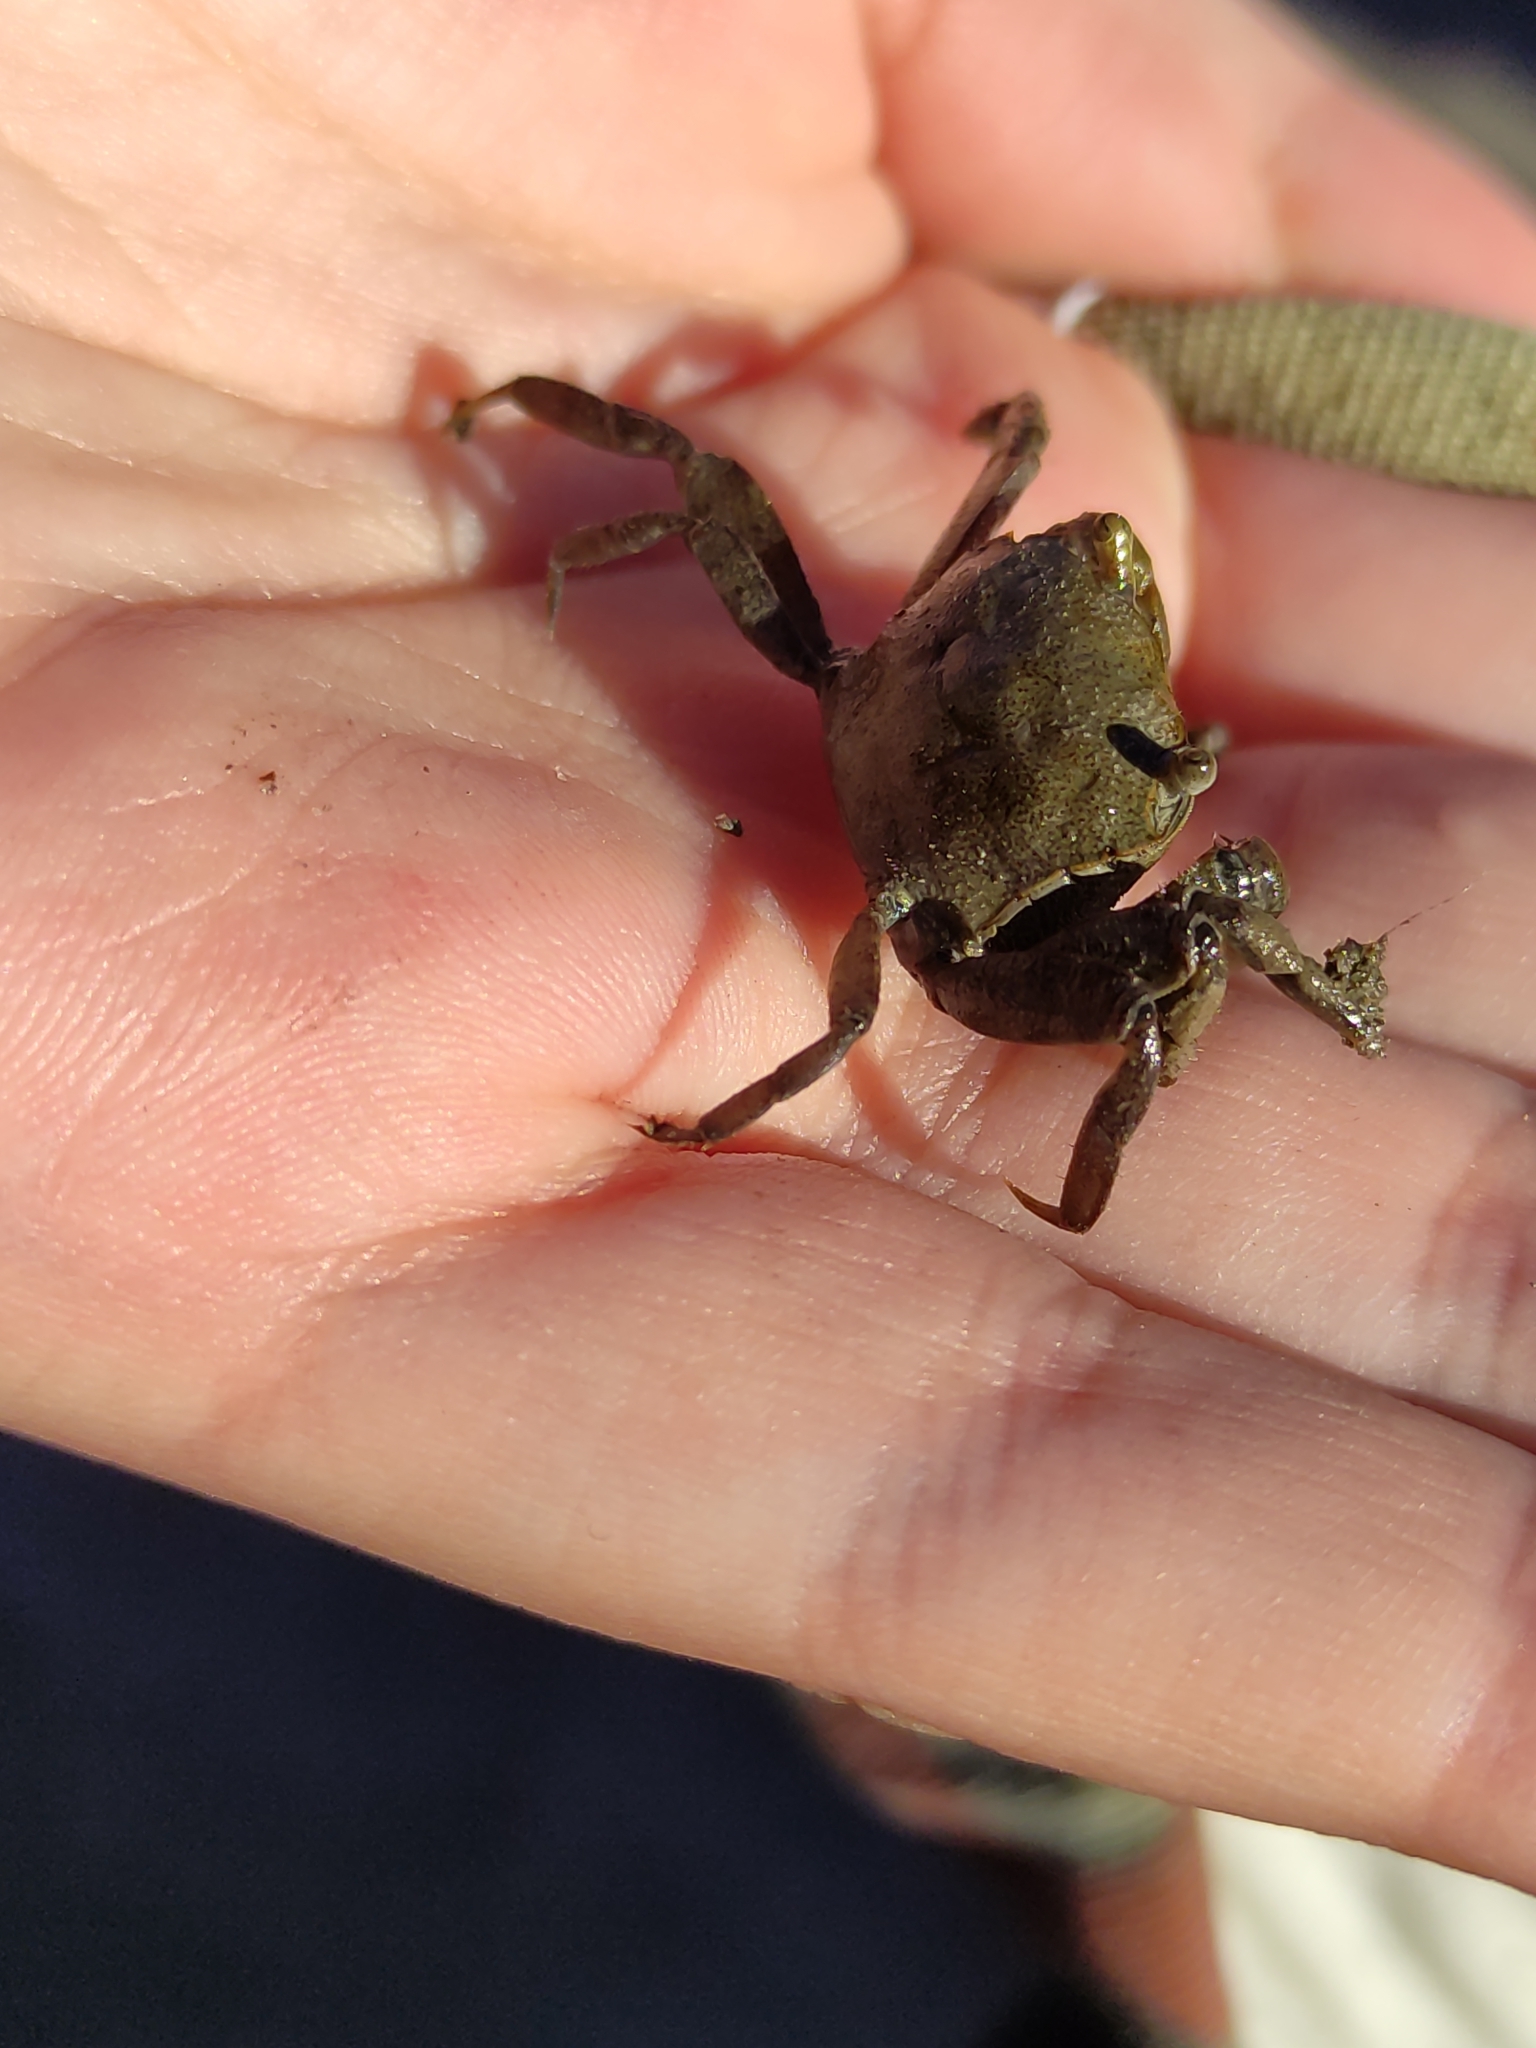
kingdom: Animalia
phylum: Arthropoda
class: Malacostraca
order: Decapoda
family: Varunidae
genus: Austrohelice
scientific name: Austrohelice crassa
